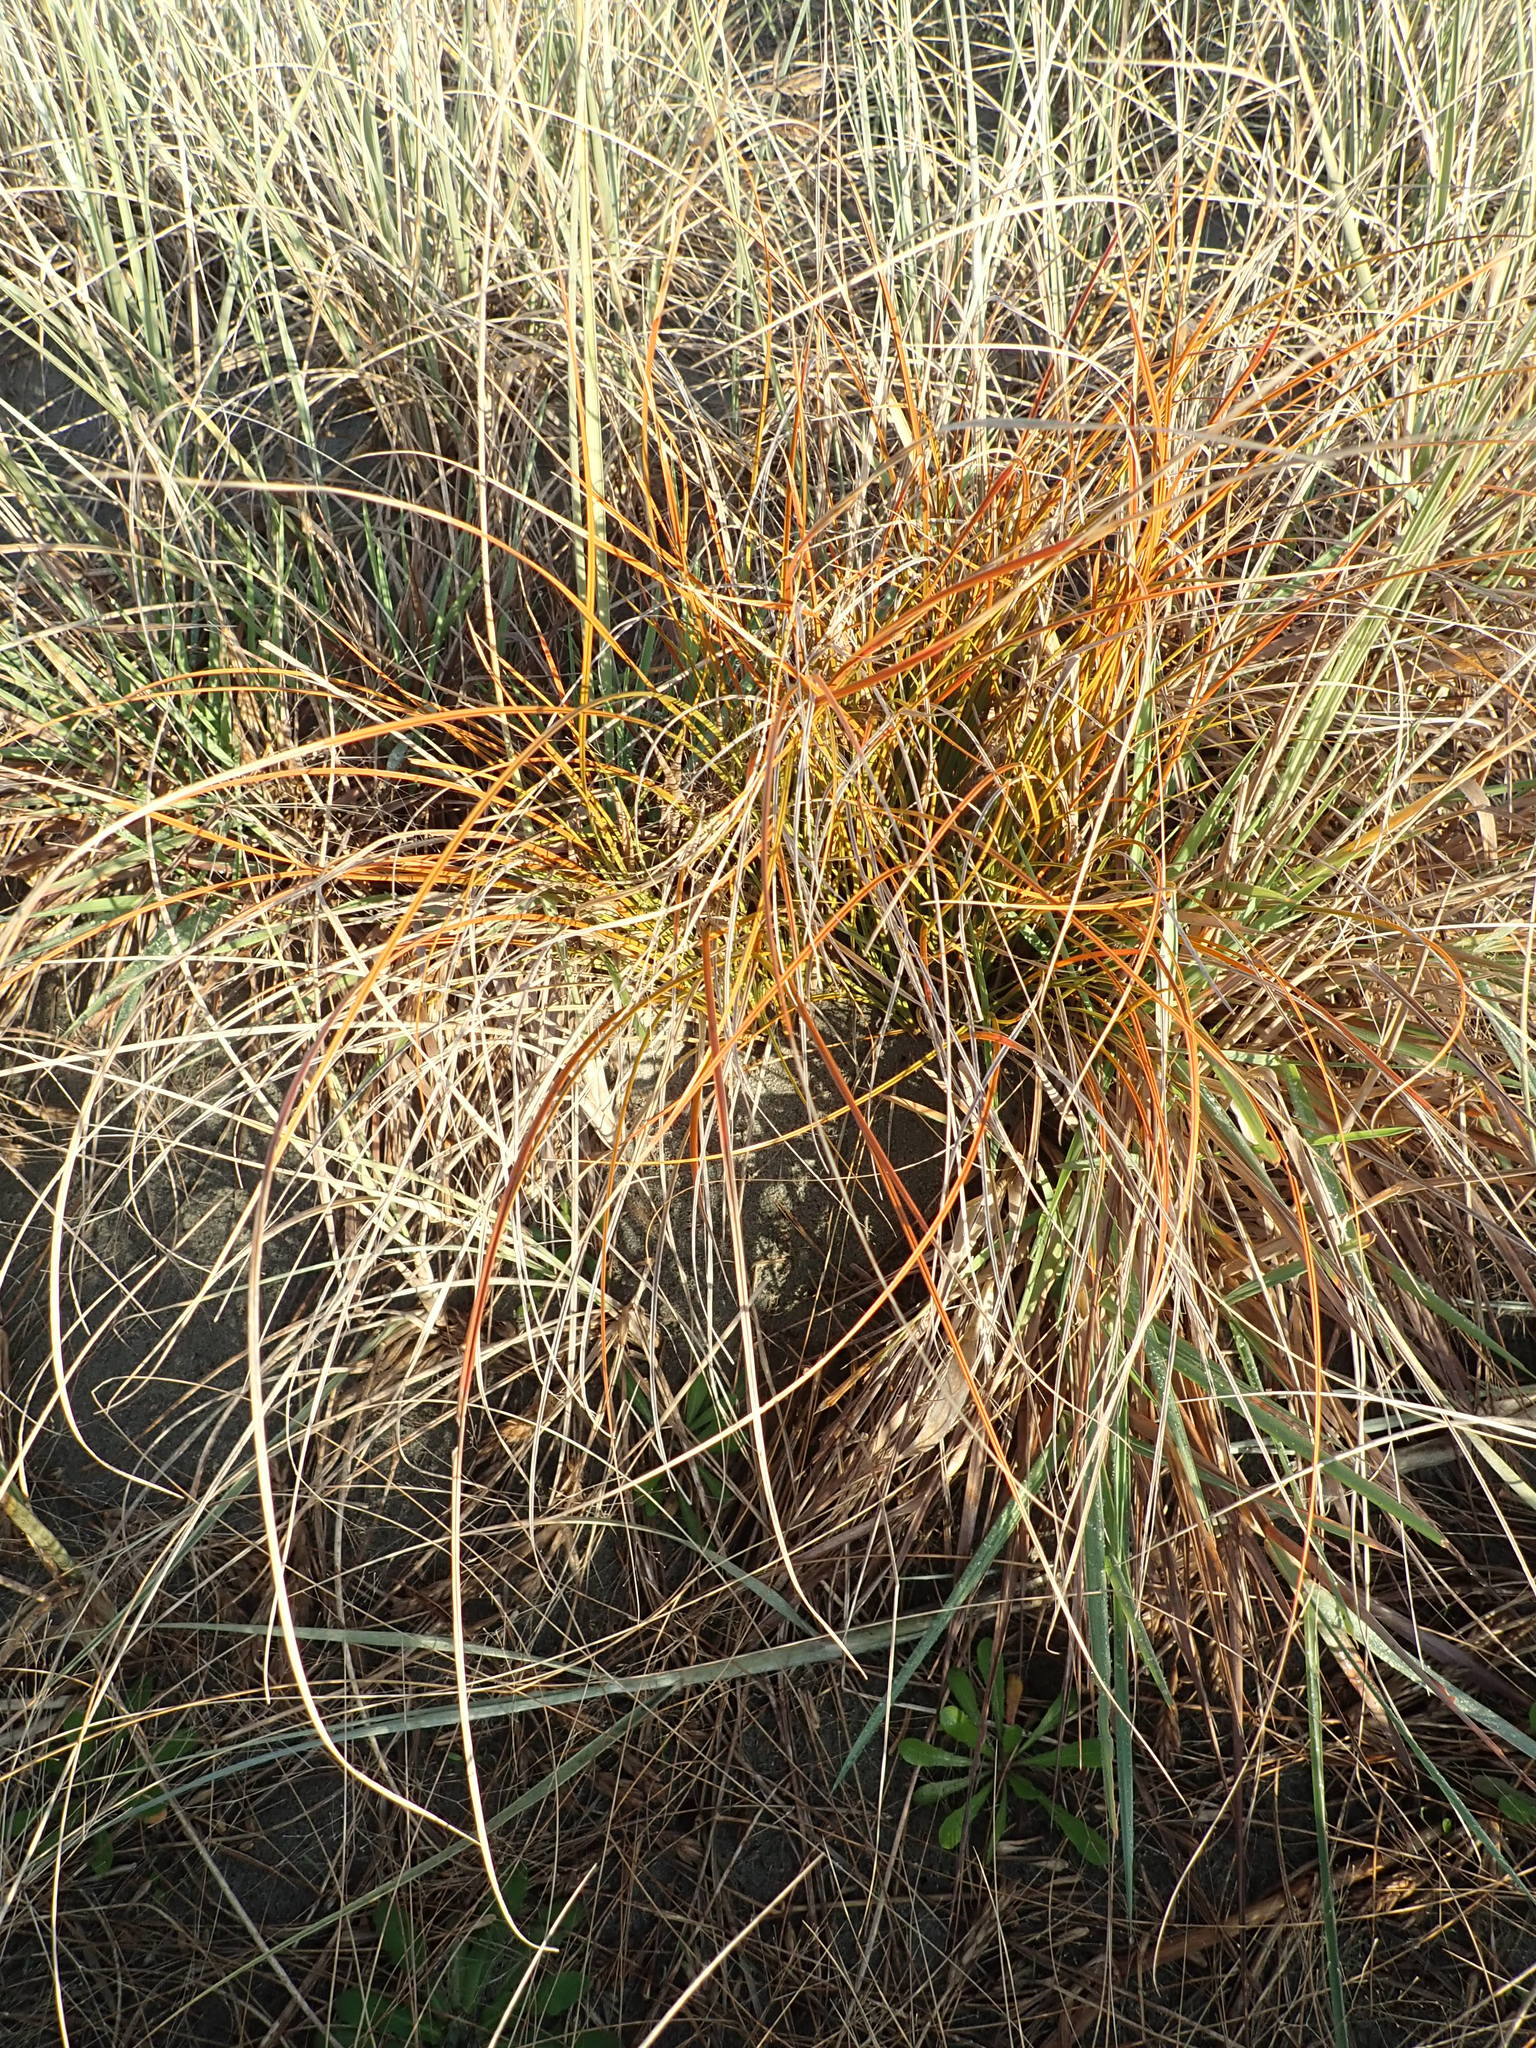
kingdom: Plantae
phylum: Tracheophyta
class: Liliopsida
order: Poales
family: Cyperaceae
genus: Carex
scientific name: Carex testacea
